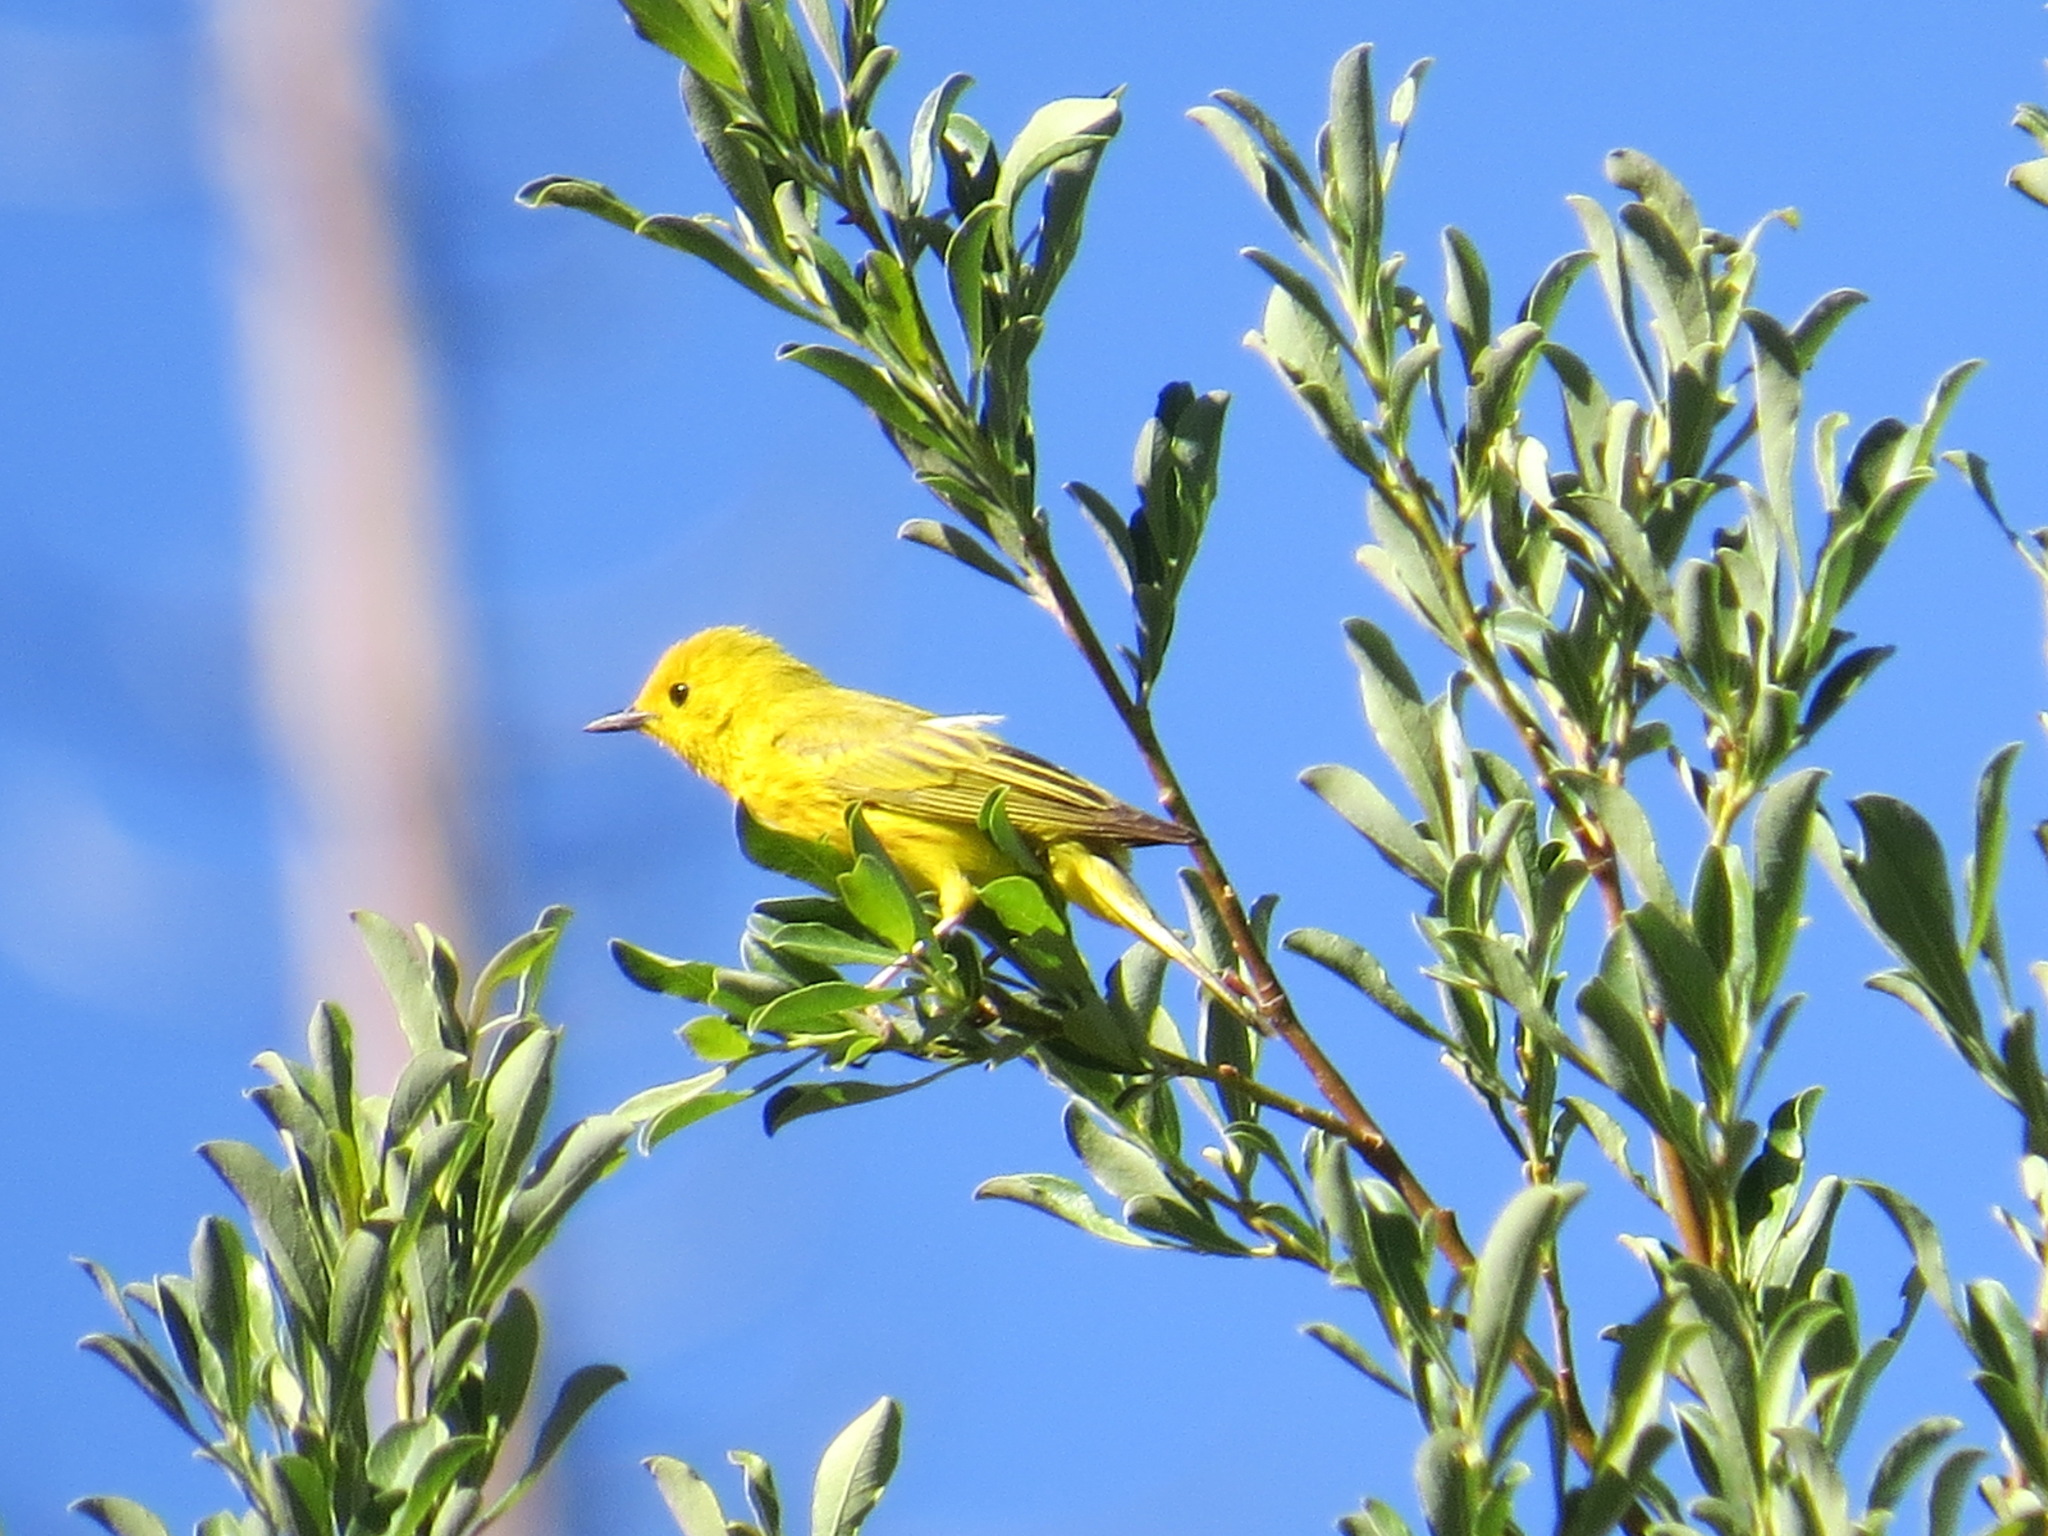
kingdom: Animalia
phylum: Chordata
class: Aves
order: Passeriformes
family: Parulidae
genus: Setophaga
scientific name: Setophaga petechia
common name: Yellow warbler
